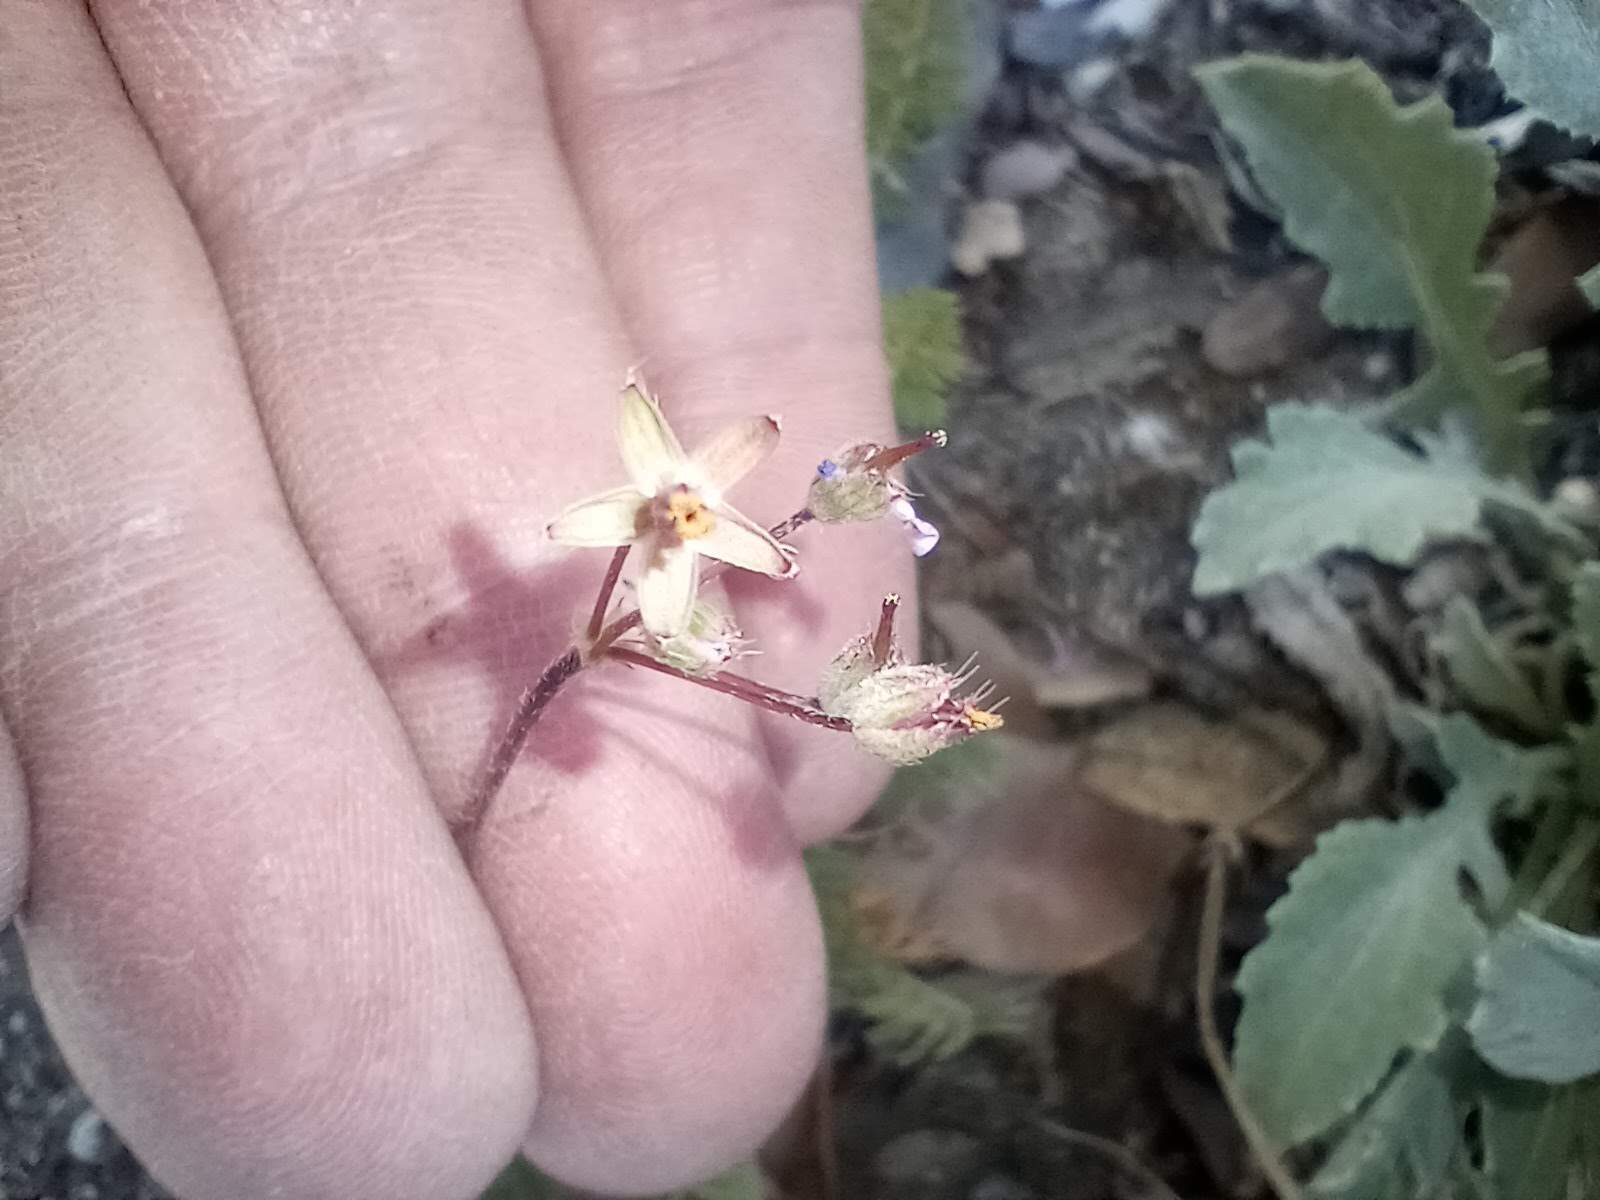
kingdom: Plantae
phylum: Tracheophyta
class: Magnoliopsida
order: Geraniales
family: Geraniaceae
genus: Erodium
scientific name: Erodium cicutarium
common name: Common stork's-bill
